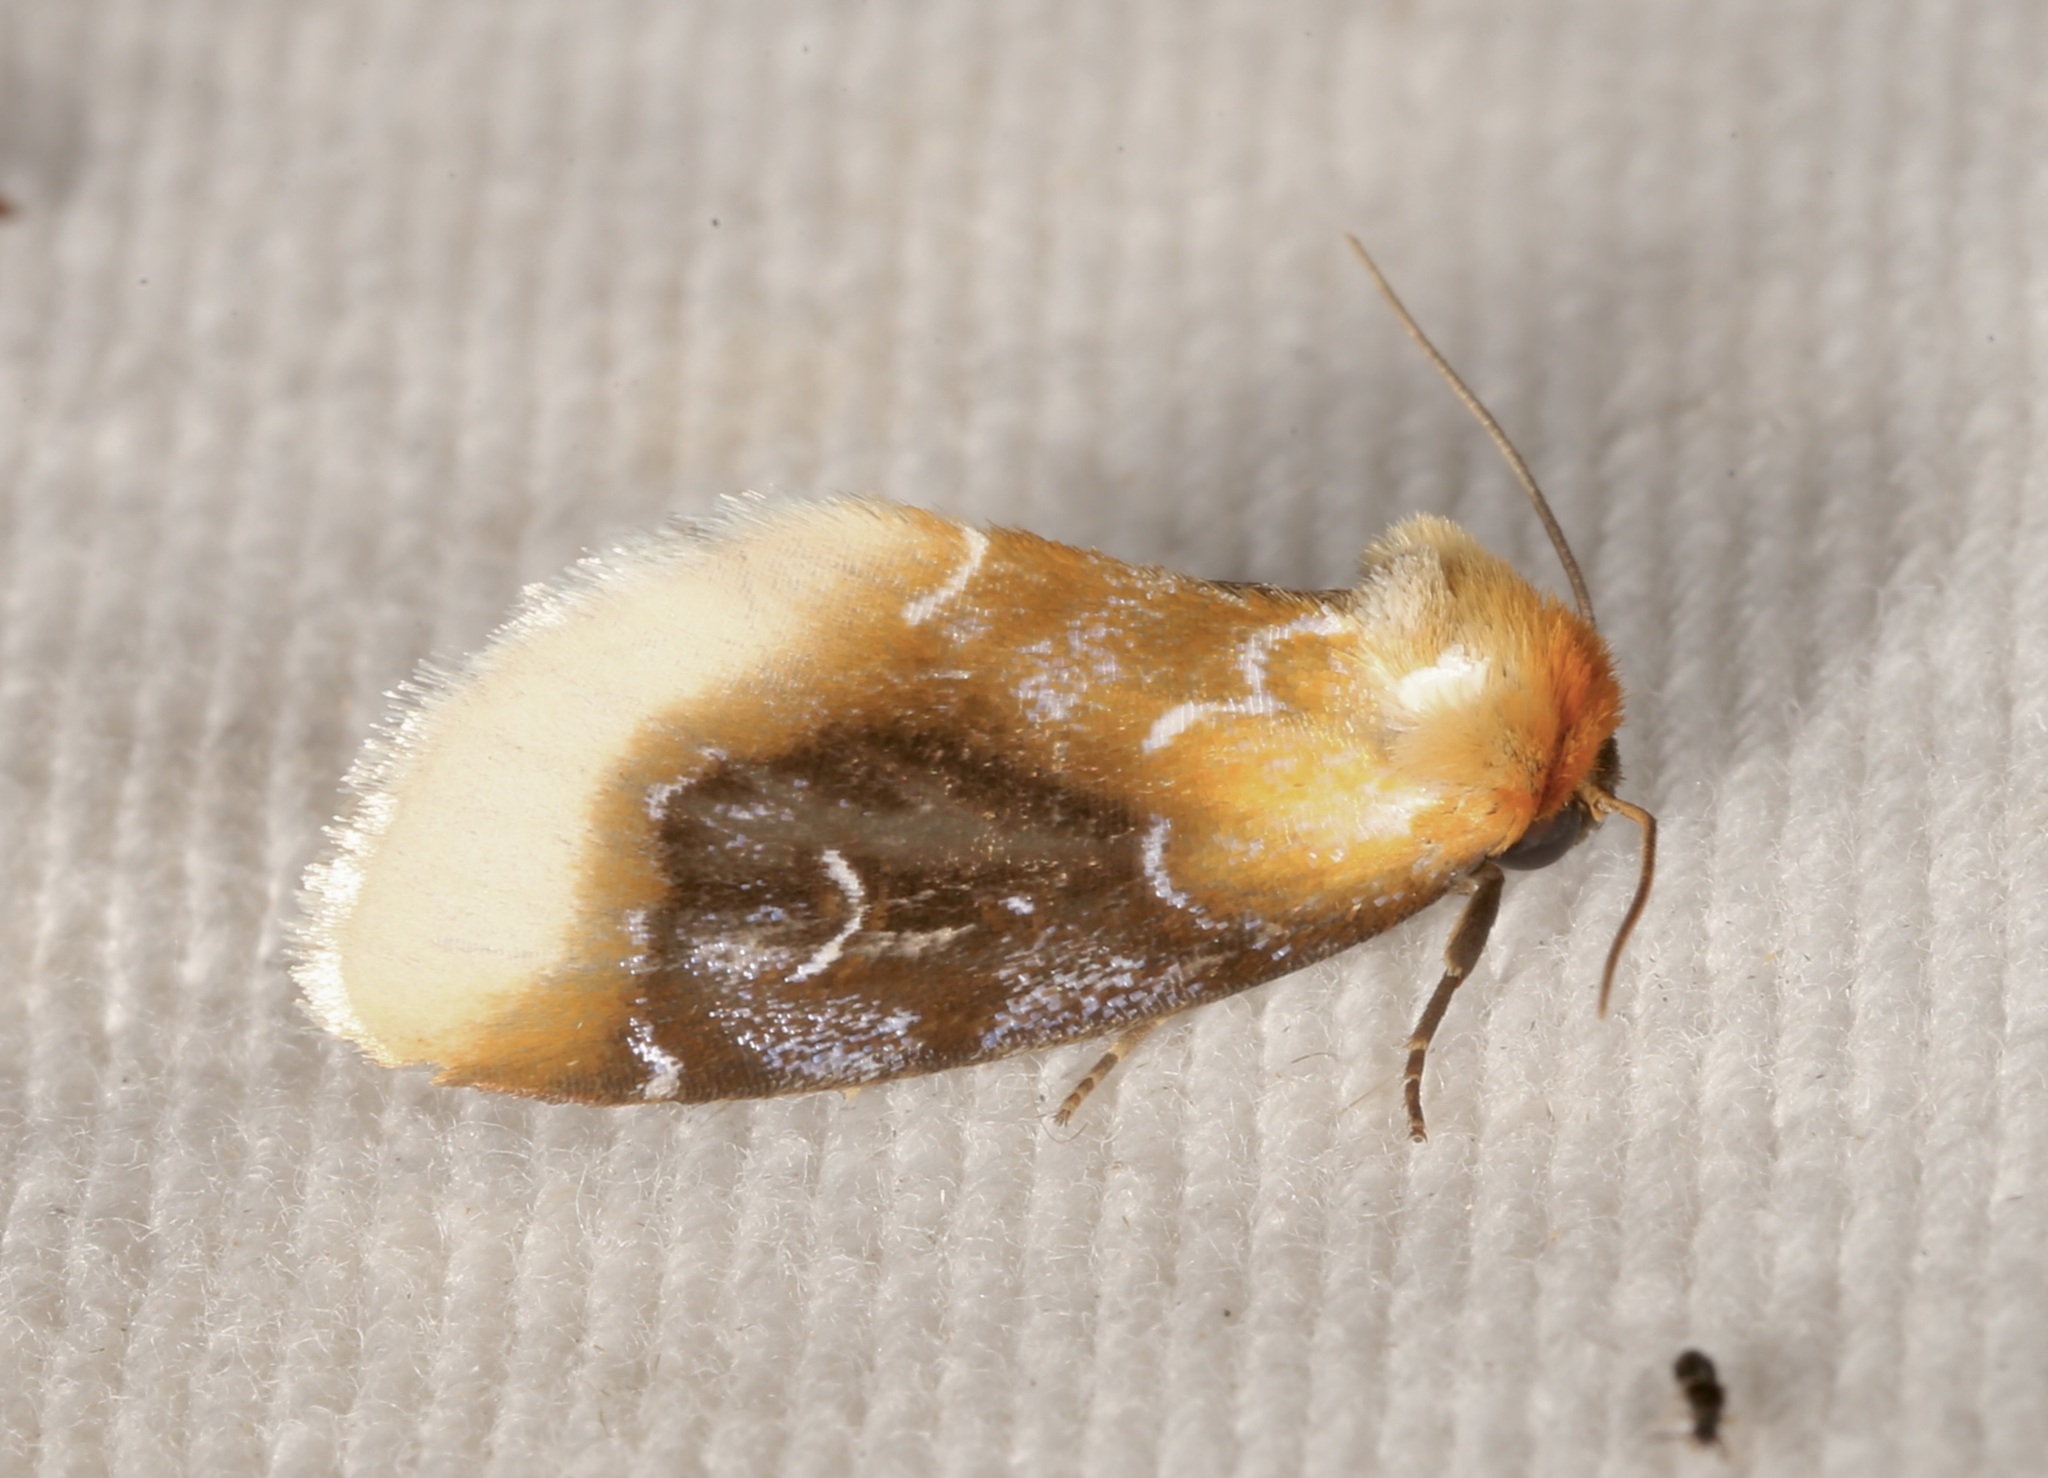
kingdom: Animalia
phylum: Arthropoda
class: Insecta
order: Lepidoptera
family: Noctuidae
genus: Chrysoecia
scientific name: Chrysoecia scira
